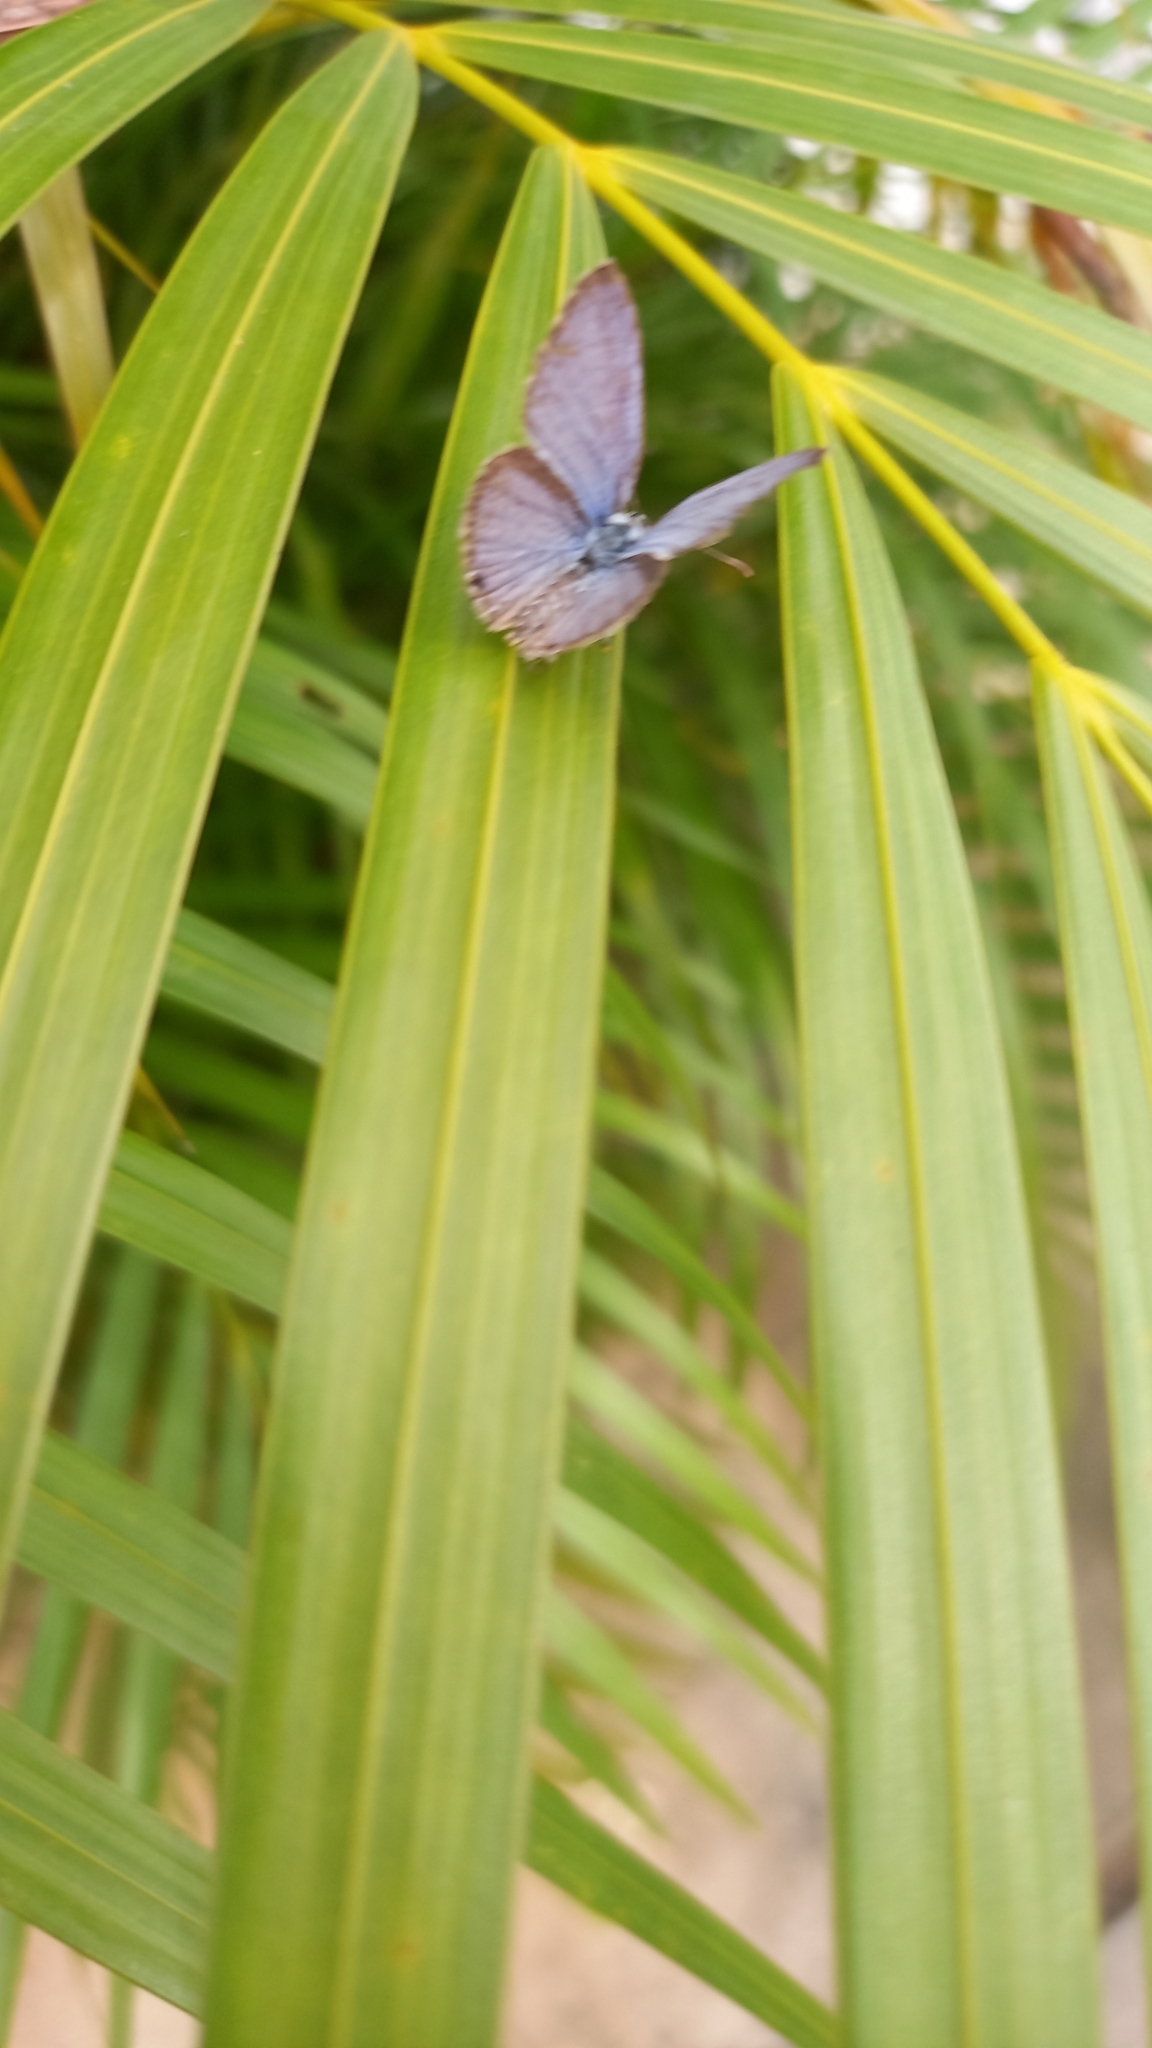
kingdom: Animalia
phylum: Arthropoda
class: Insecta
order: Lepidoptera
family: Lycaenidae
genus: Luthrodes
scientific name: Luthrodes pandava
